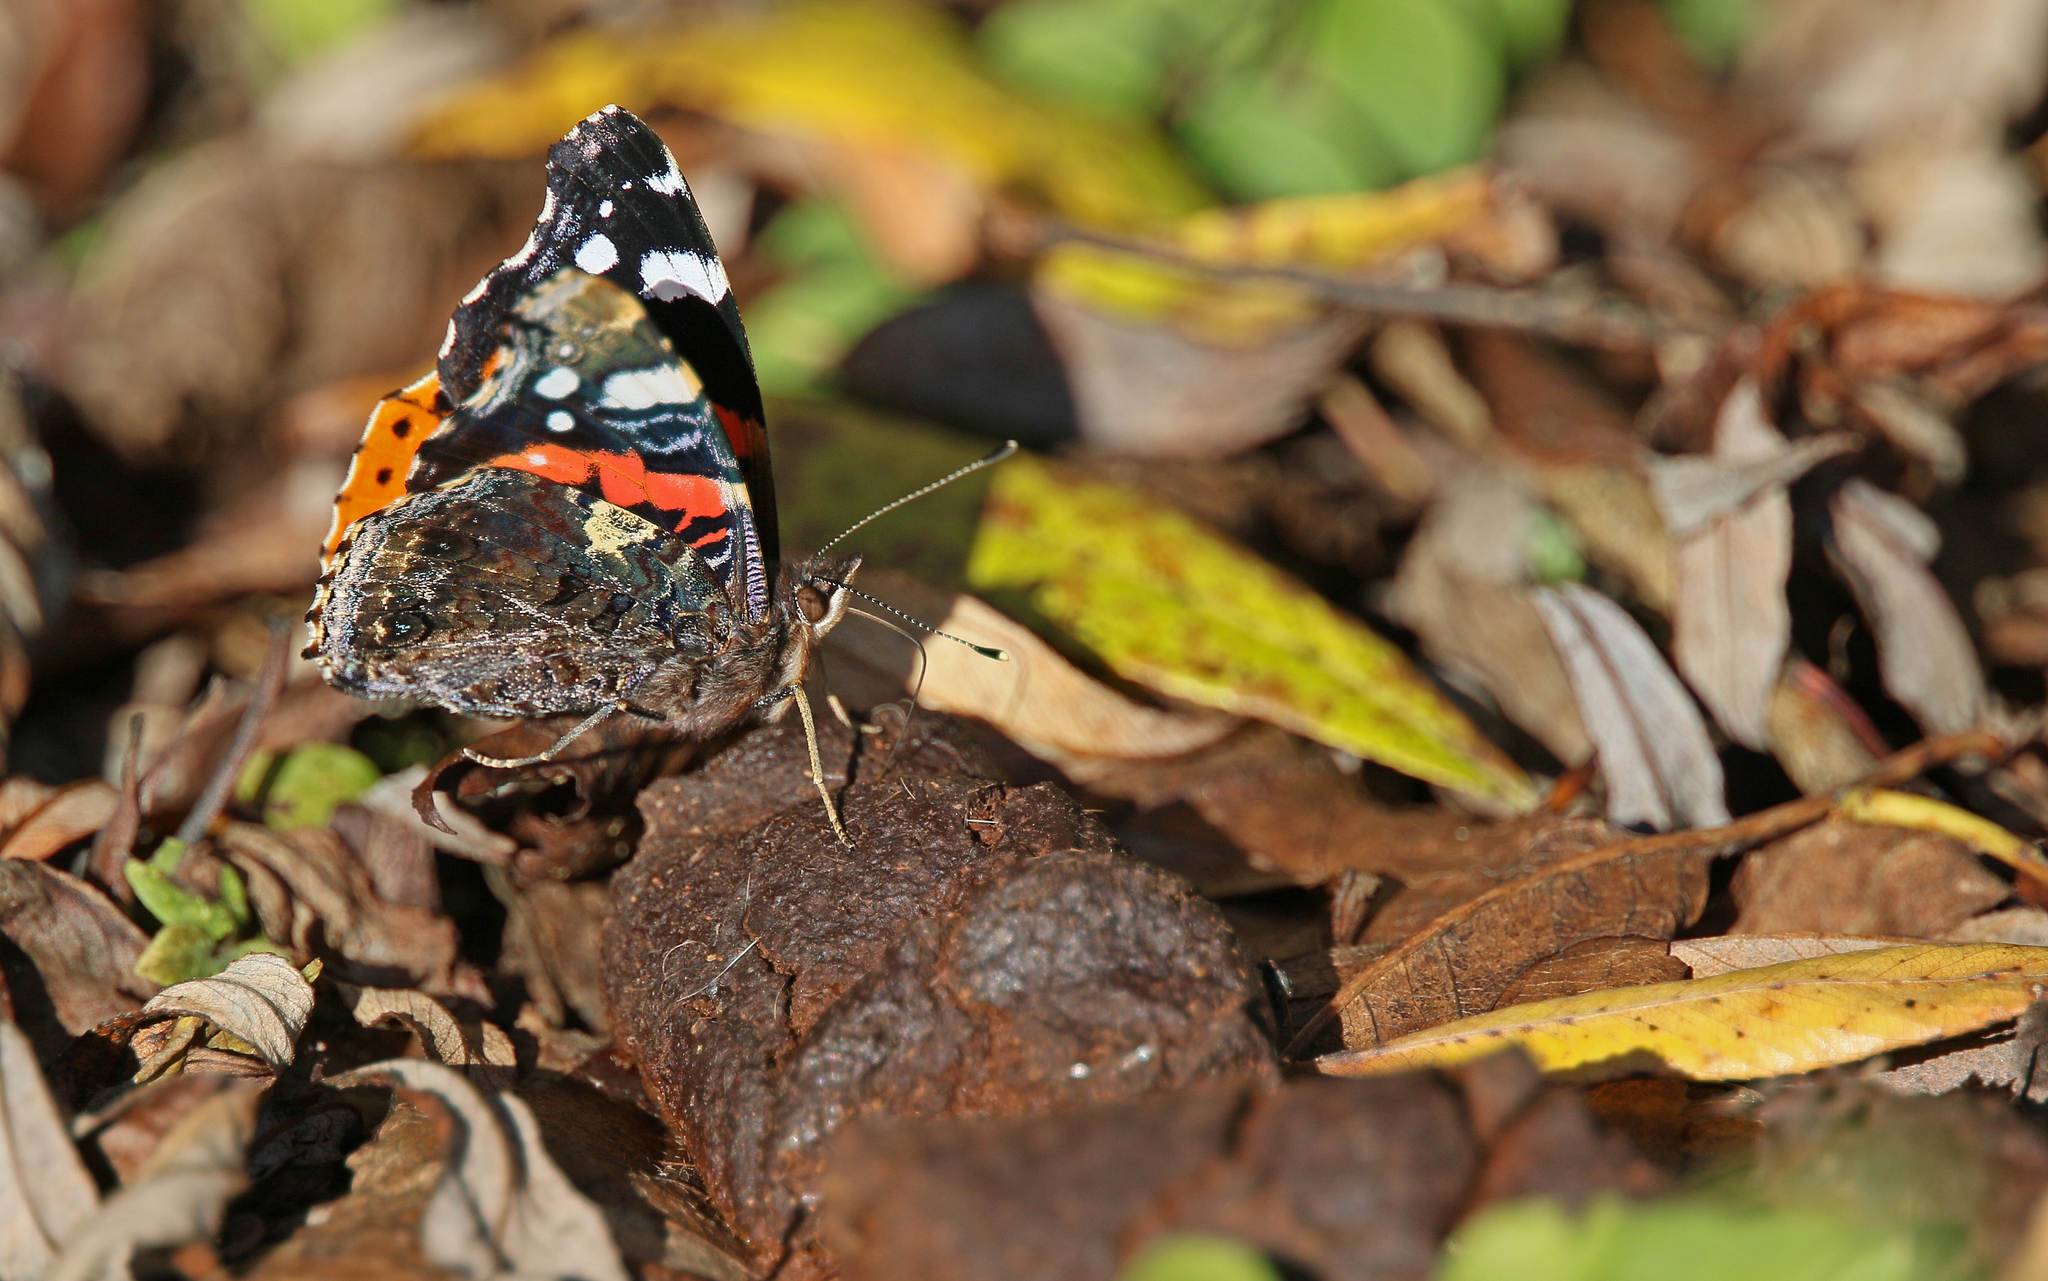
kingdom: Animalia
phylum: Arthropoda
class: Insecta
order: Lepidoptera
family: Nymphalidae
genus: Vanessa
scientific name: Vanessa atalanta
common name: Red admiral
